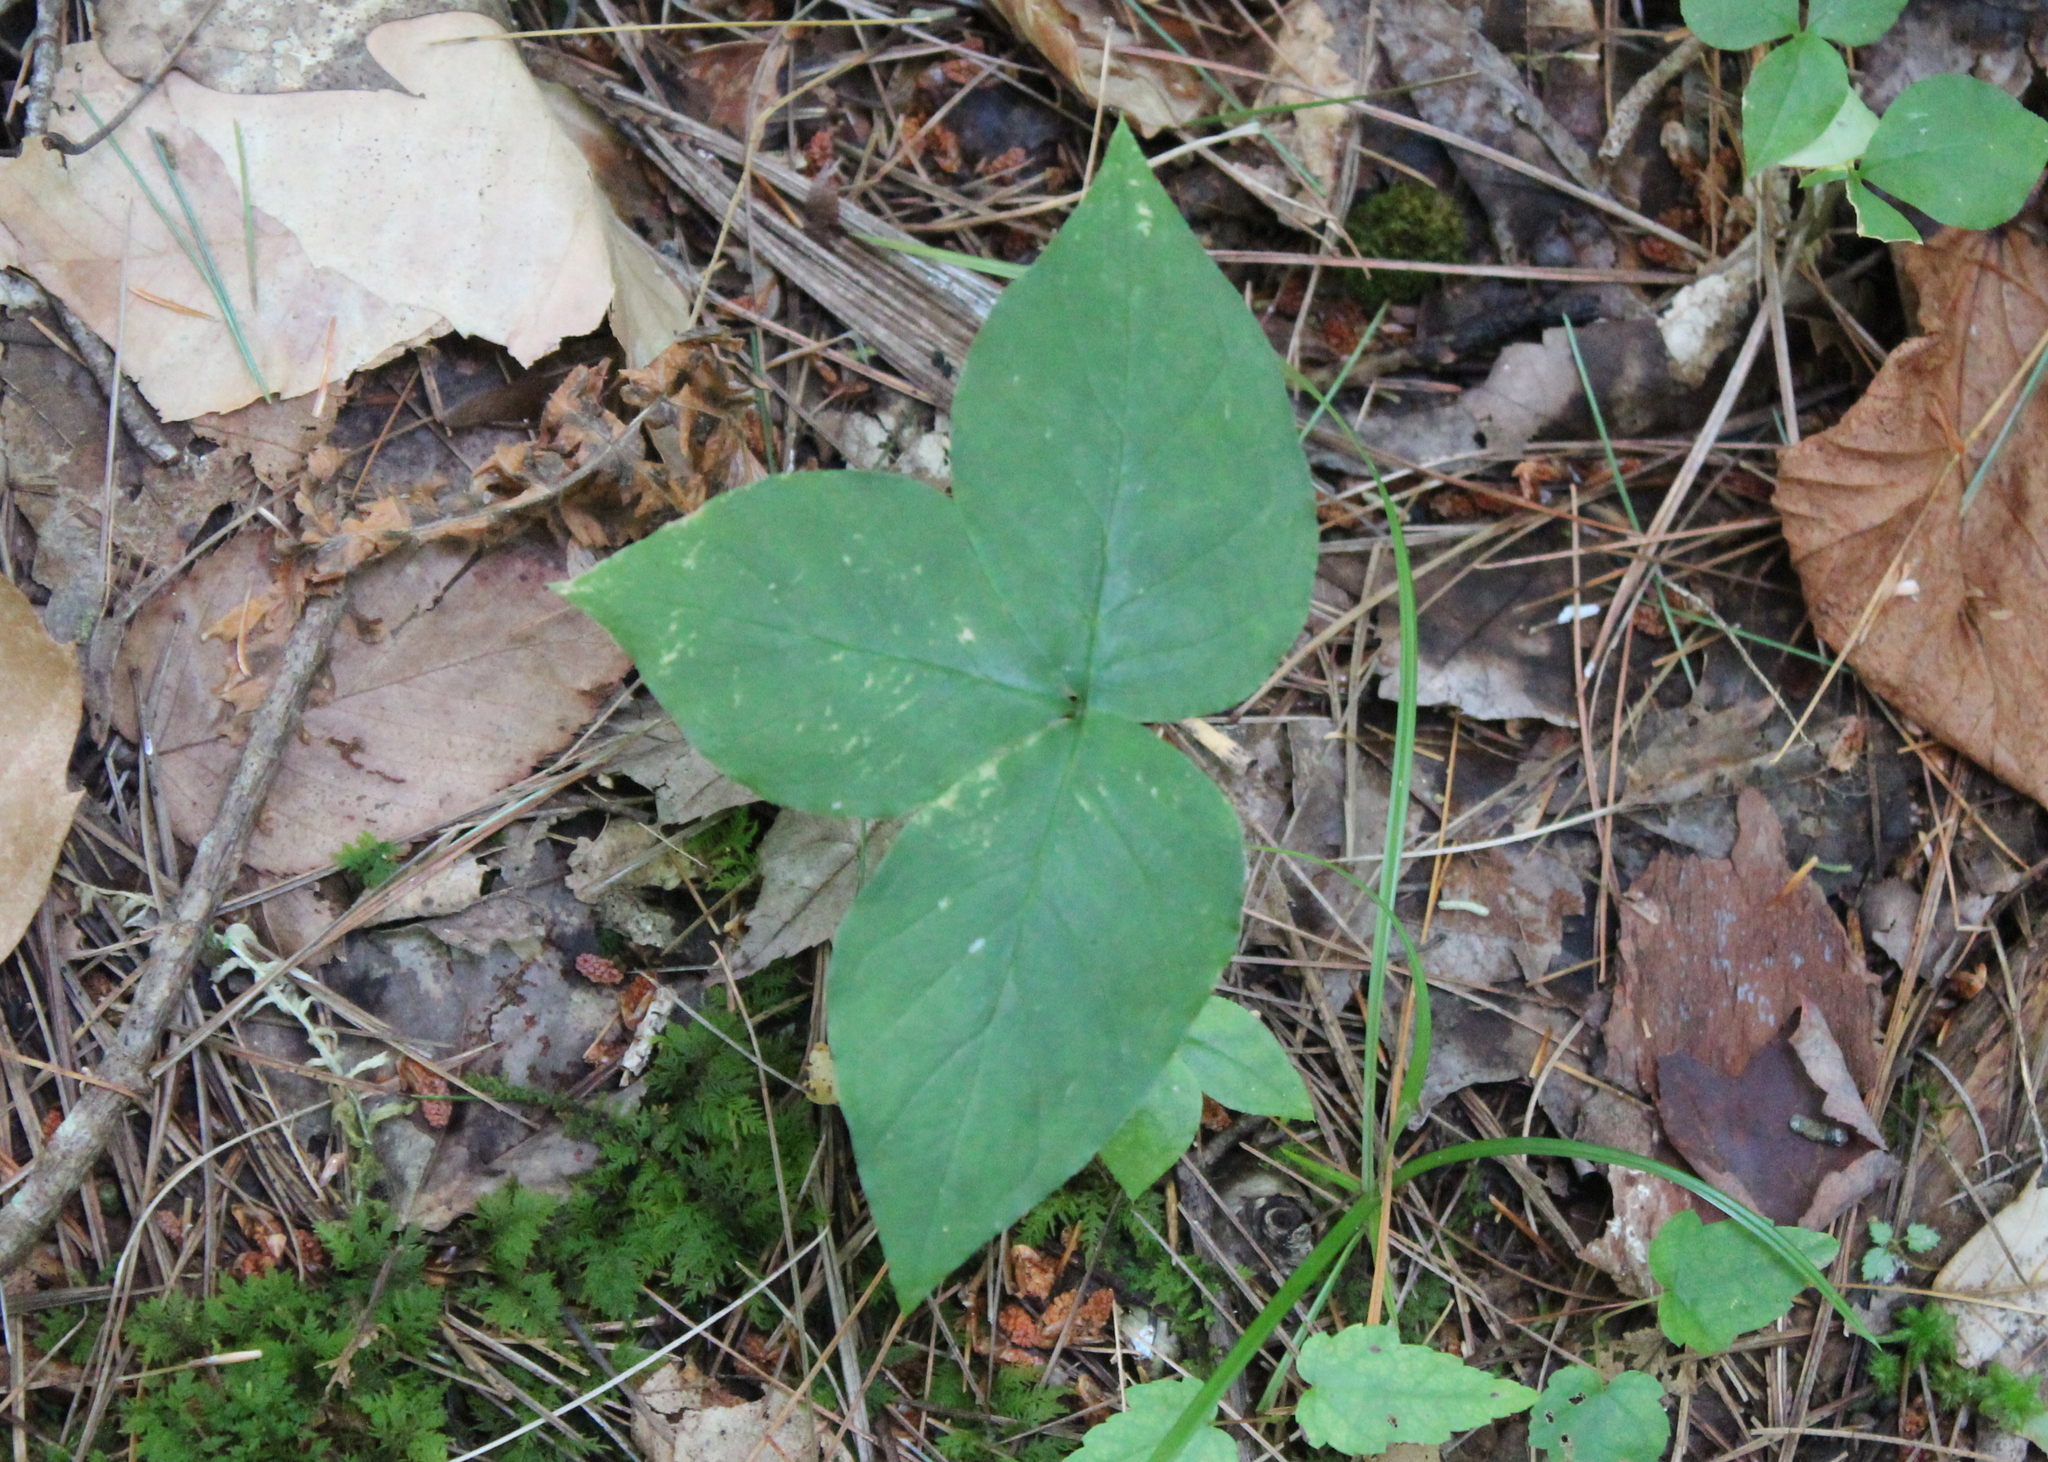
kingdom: Plantae
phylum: Tracheophyta
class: Liliopsida
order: Alismatales
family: Araceae
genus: Arisaema
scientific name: Arisaema triphyllum
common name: Jack-in-the-pulpit
